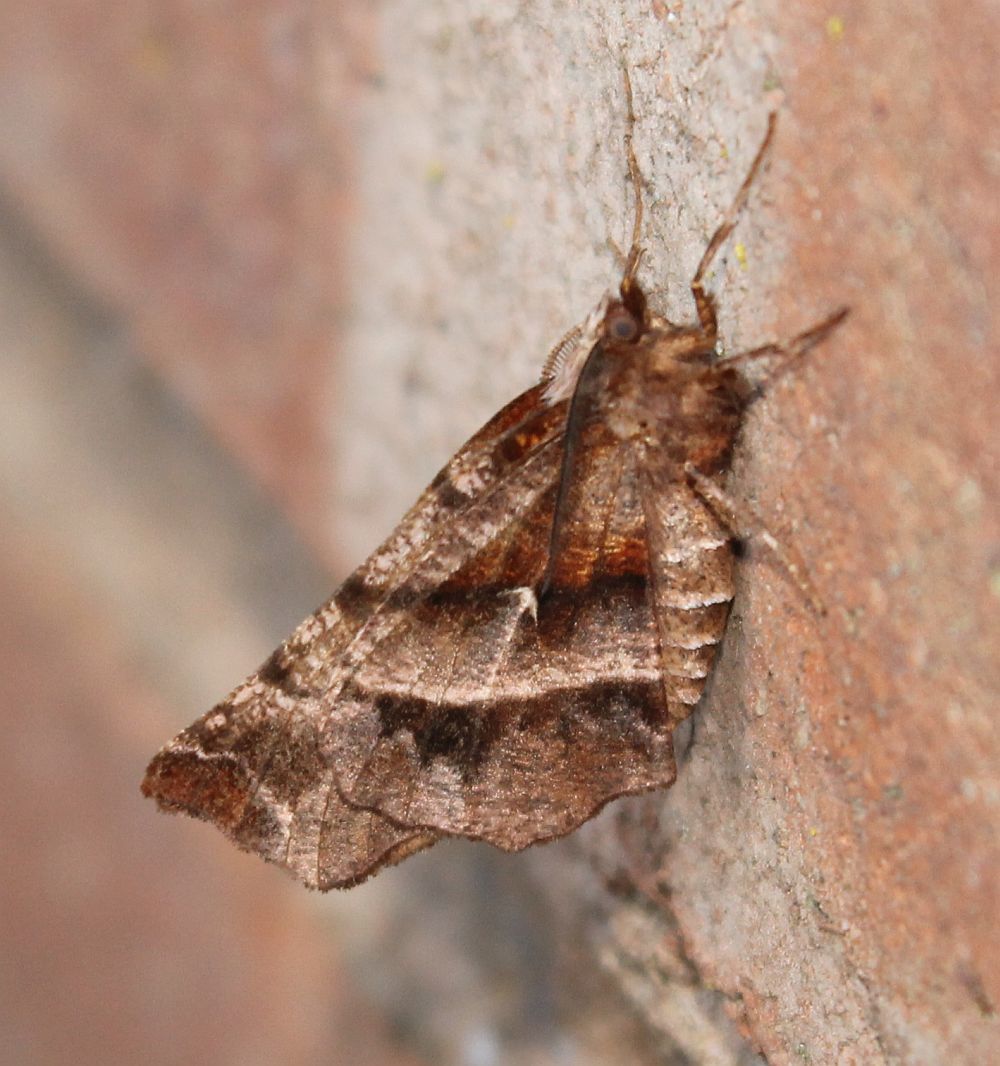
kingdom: Animalia
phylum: Arthropoda
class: Insecta
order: Lepidoptera
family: Geometridae
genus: Selenia
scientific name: Selenia dentaria
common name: Early thorn
